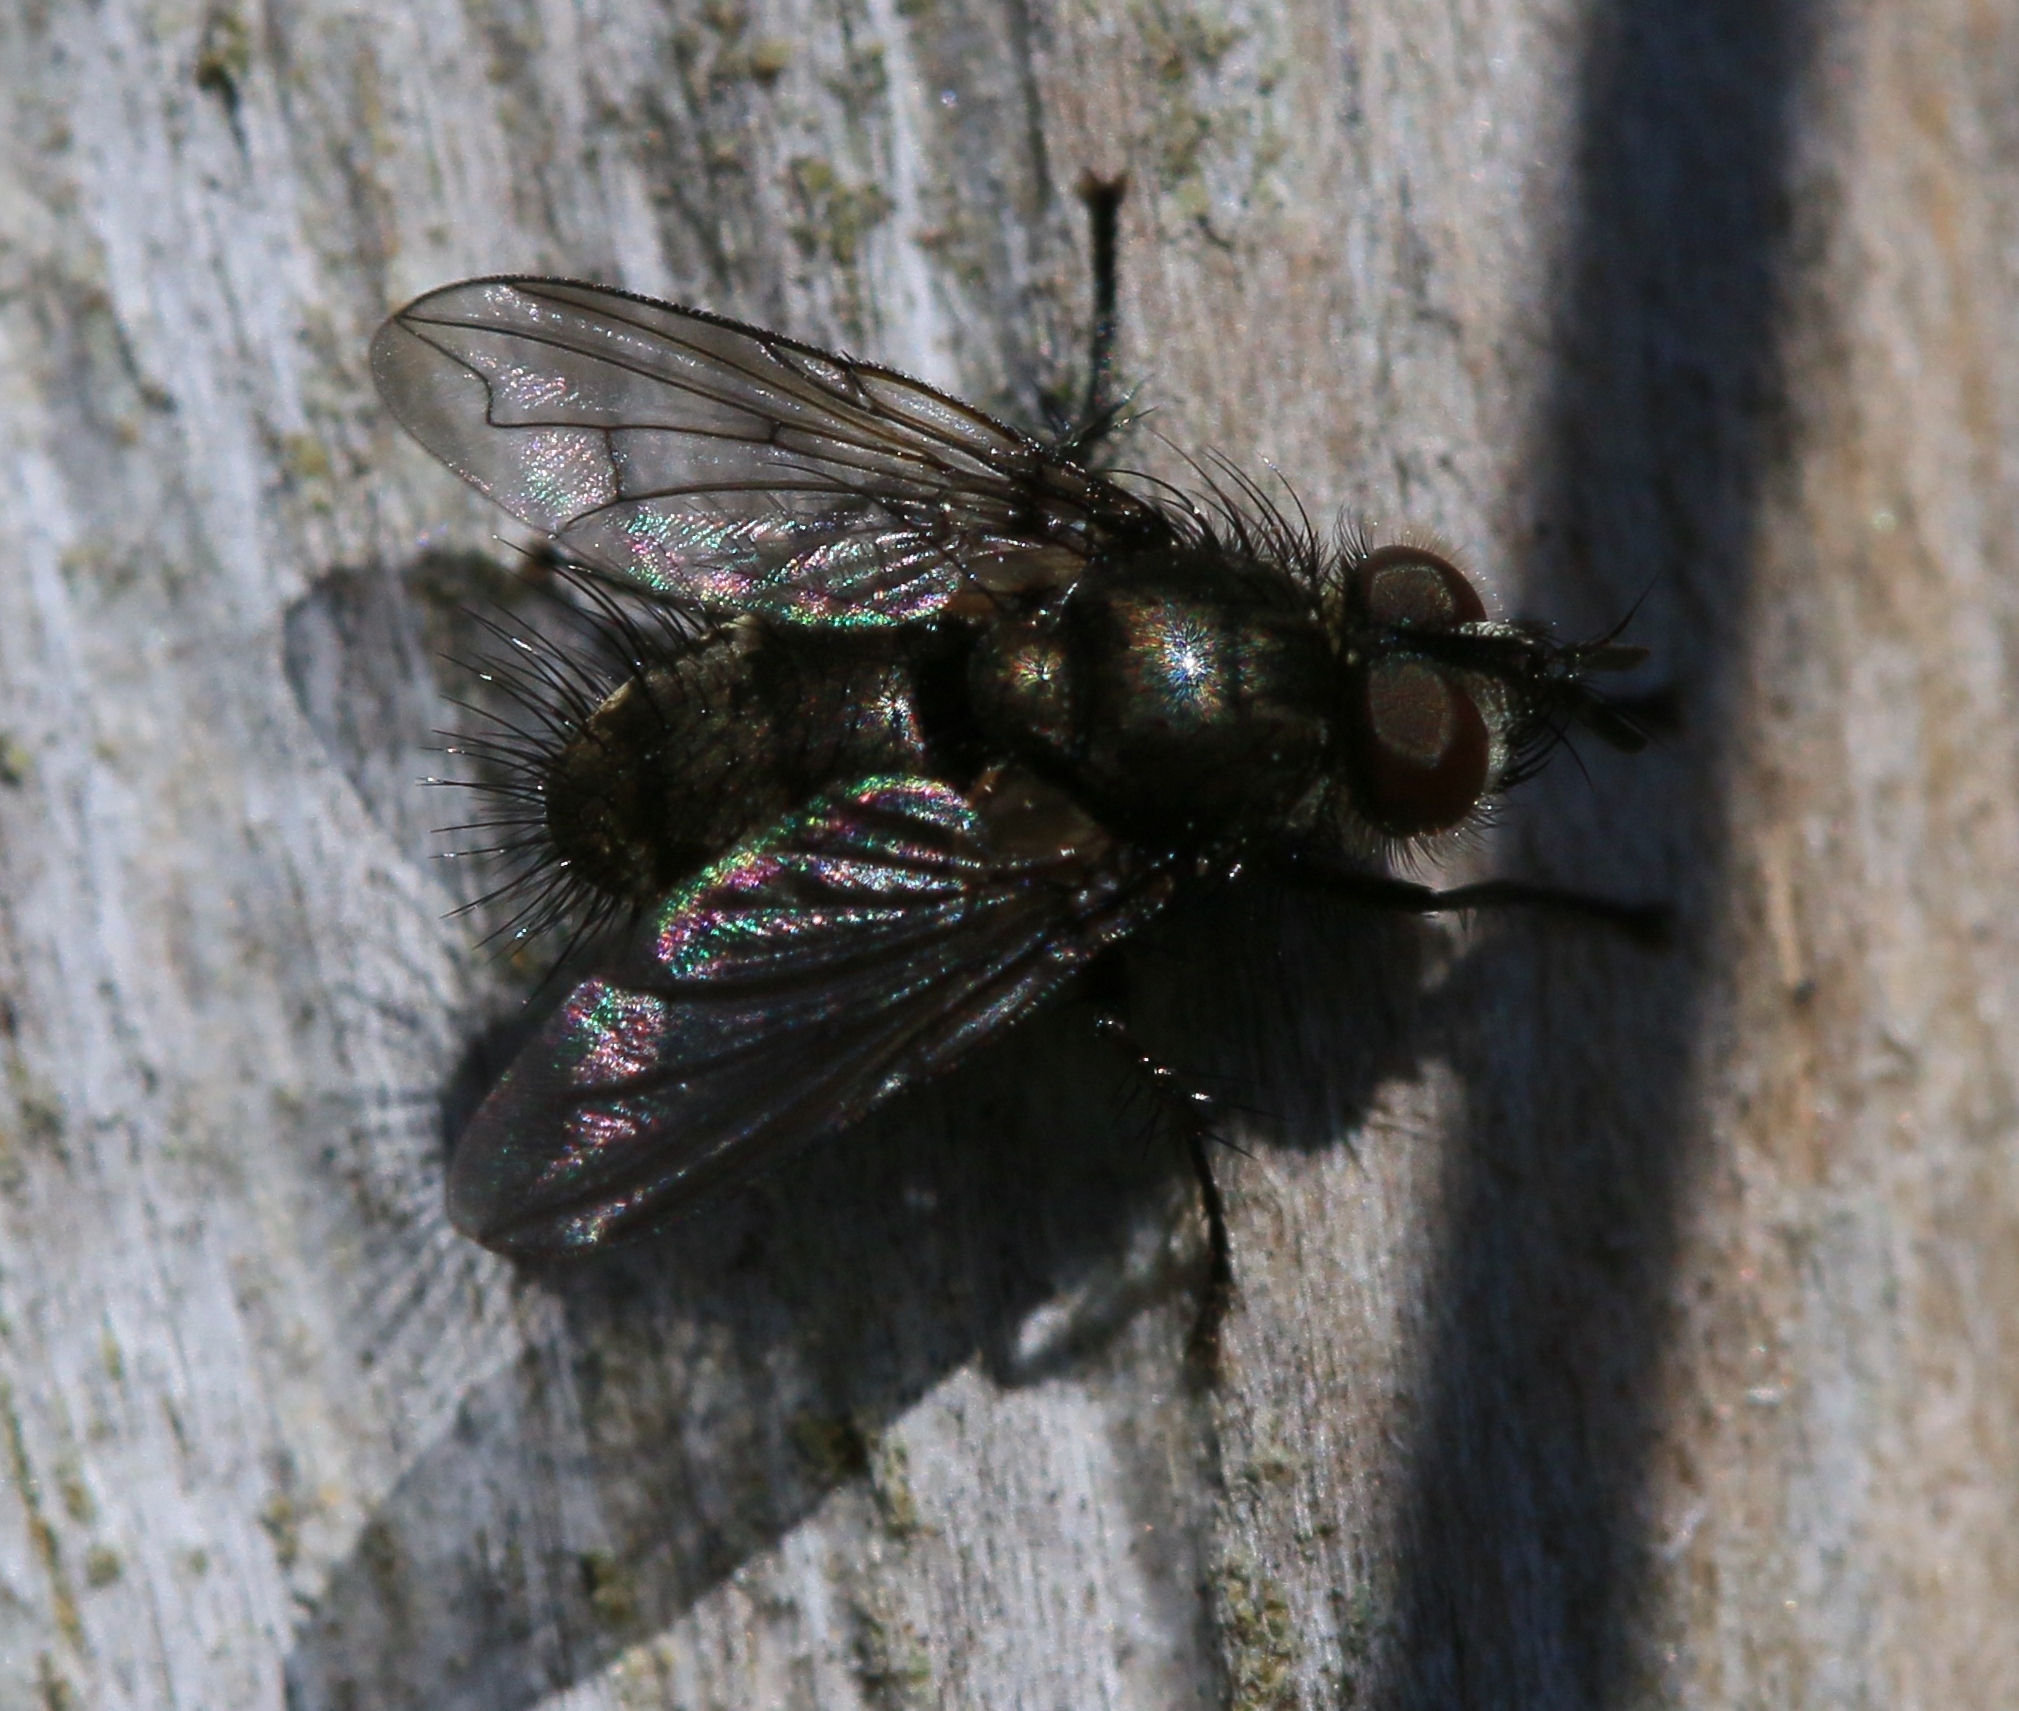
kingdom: Animalia
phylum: Arthropoda
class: Insecta
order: Diptera
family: Tachinidae
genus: Lypha
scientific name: Lypha dubia
